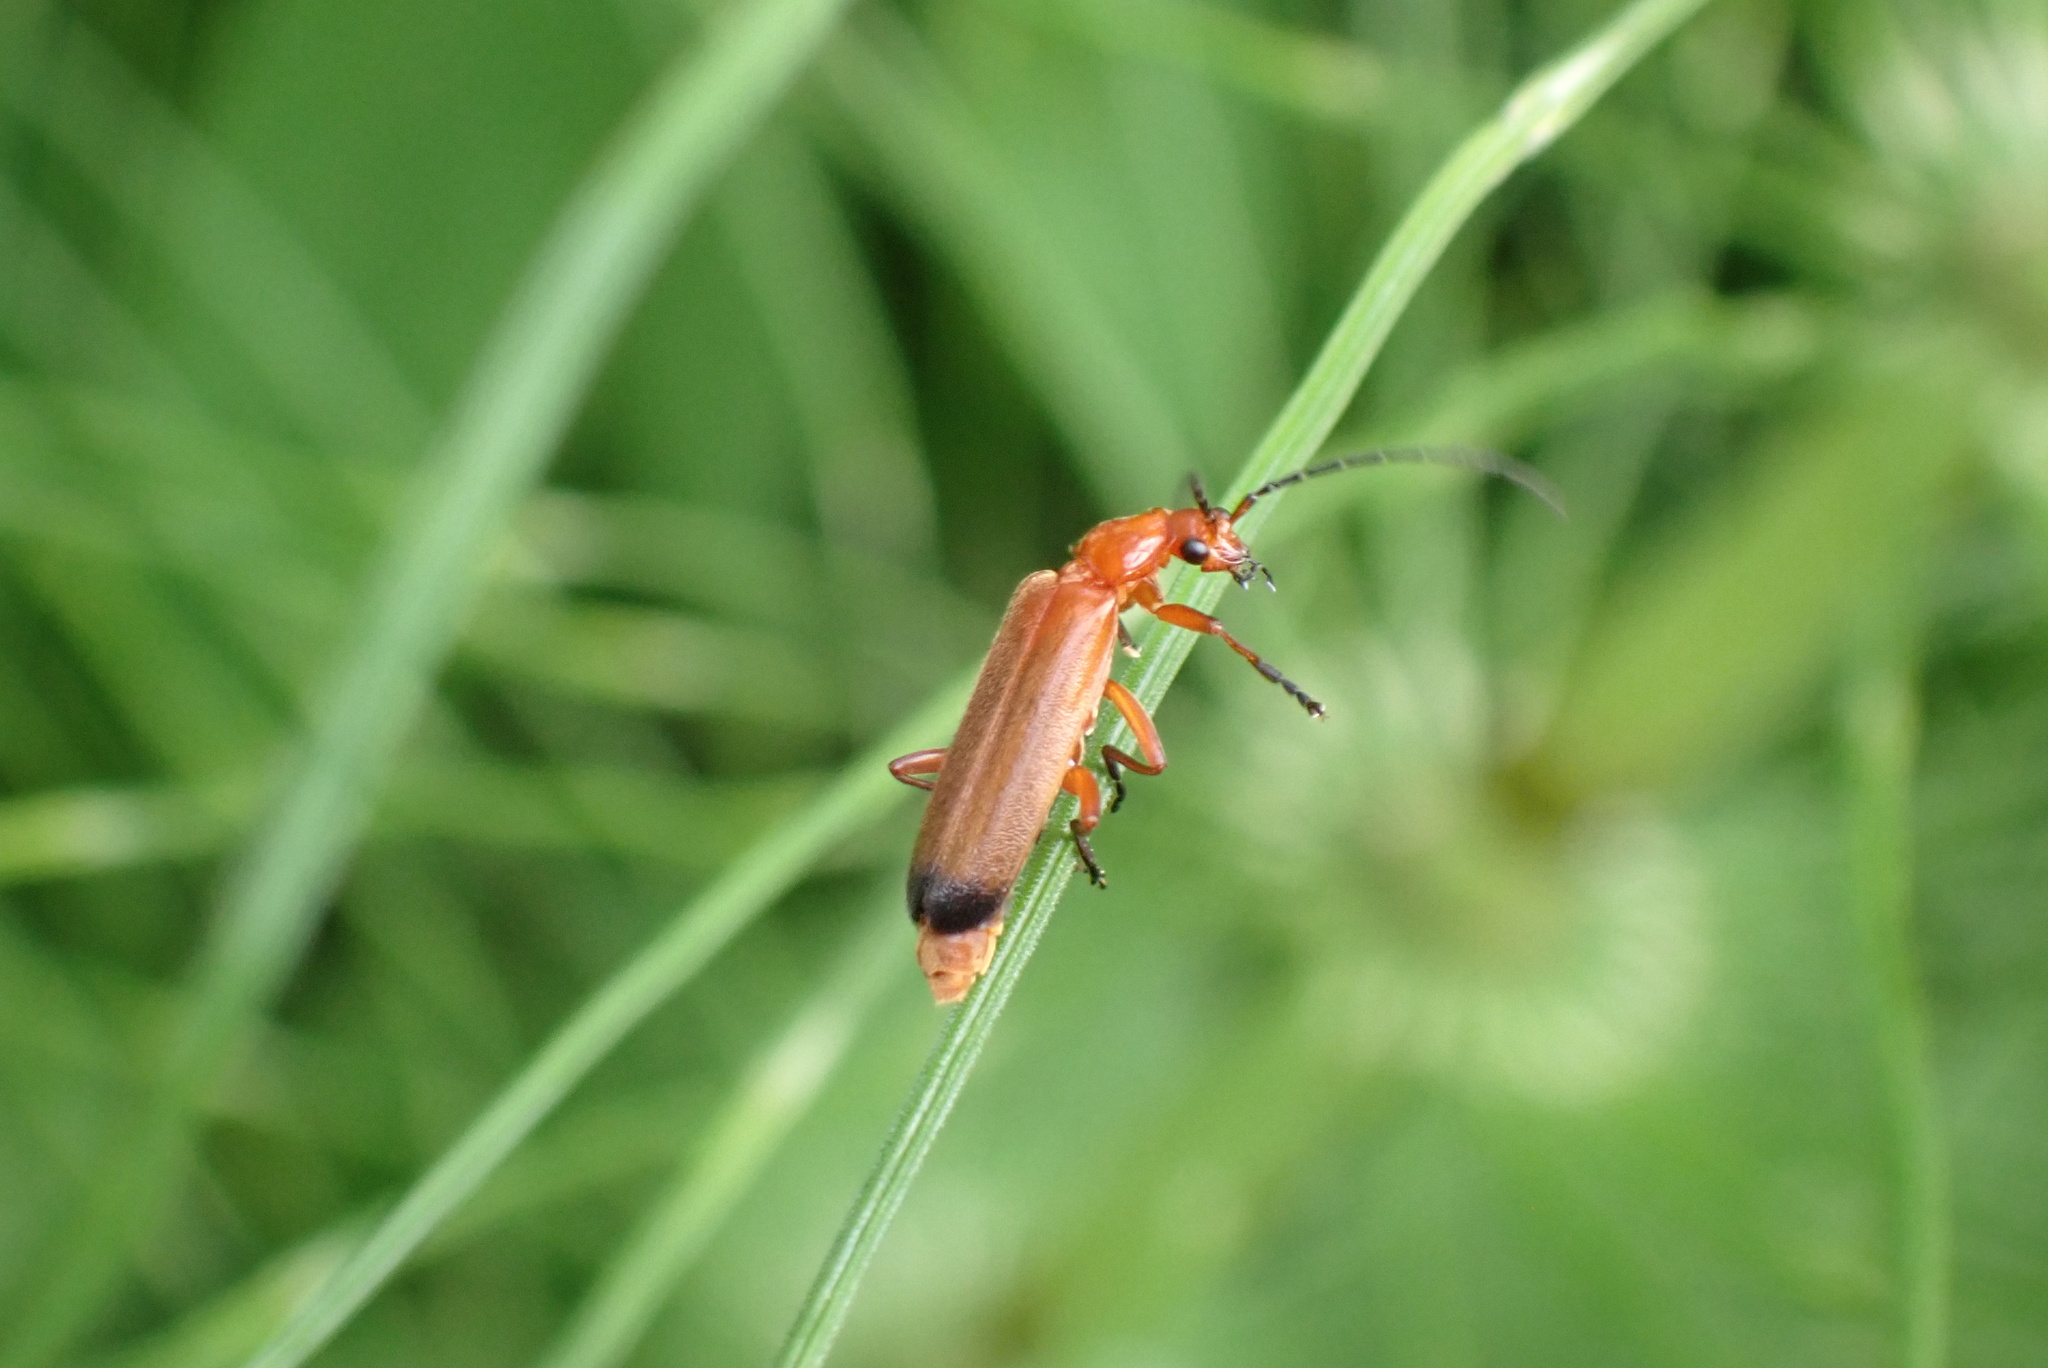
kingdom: Animalia
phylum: Arthropoda
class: Insecta
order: Coleoptera
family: Cantharidae
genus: Rhagonycha
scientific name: Rhagonycha fulva
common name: Common red soldier beetle
